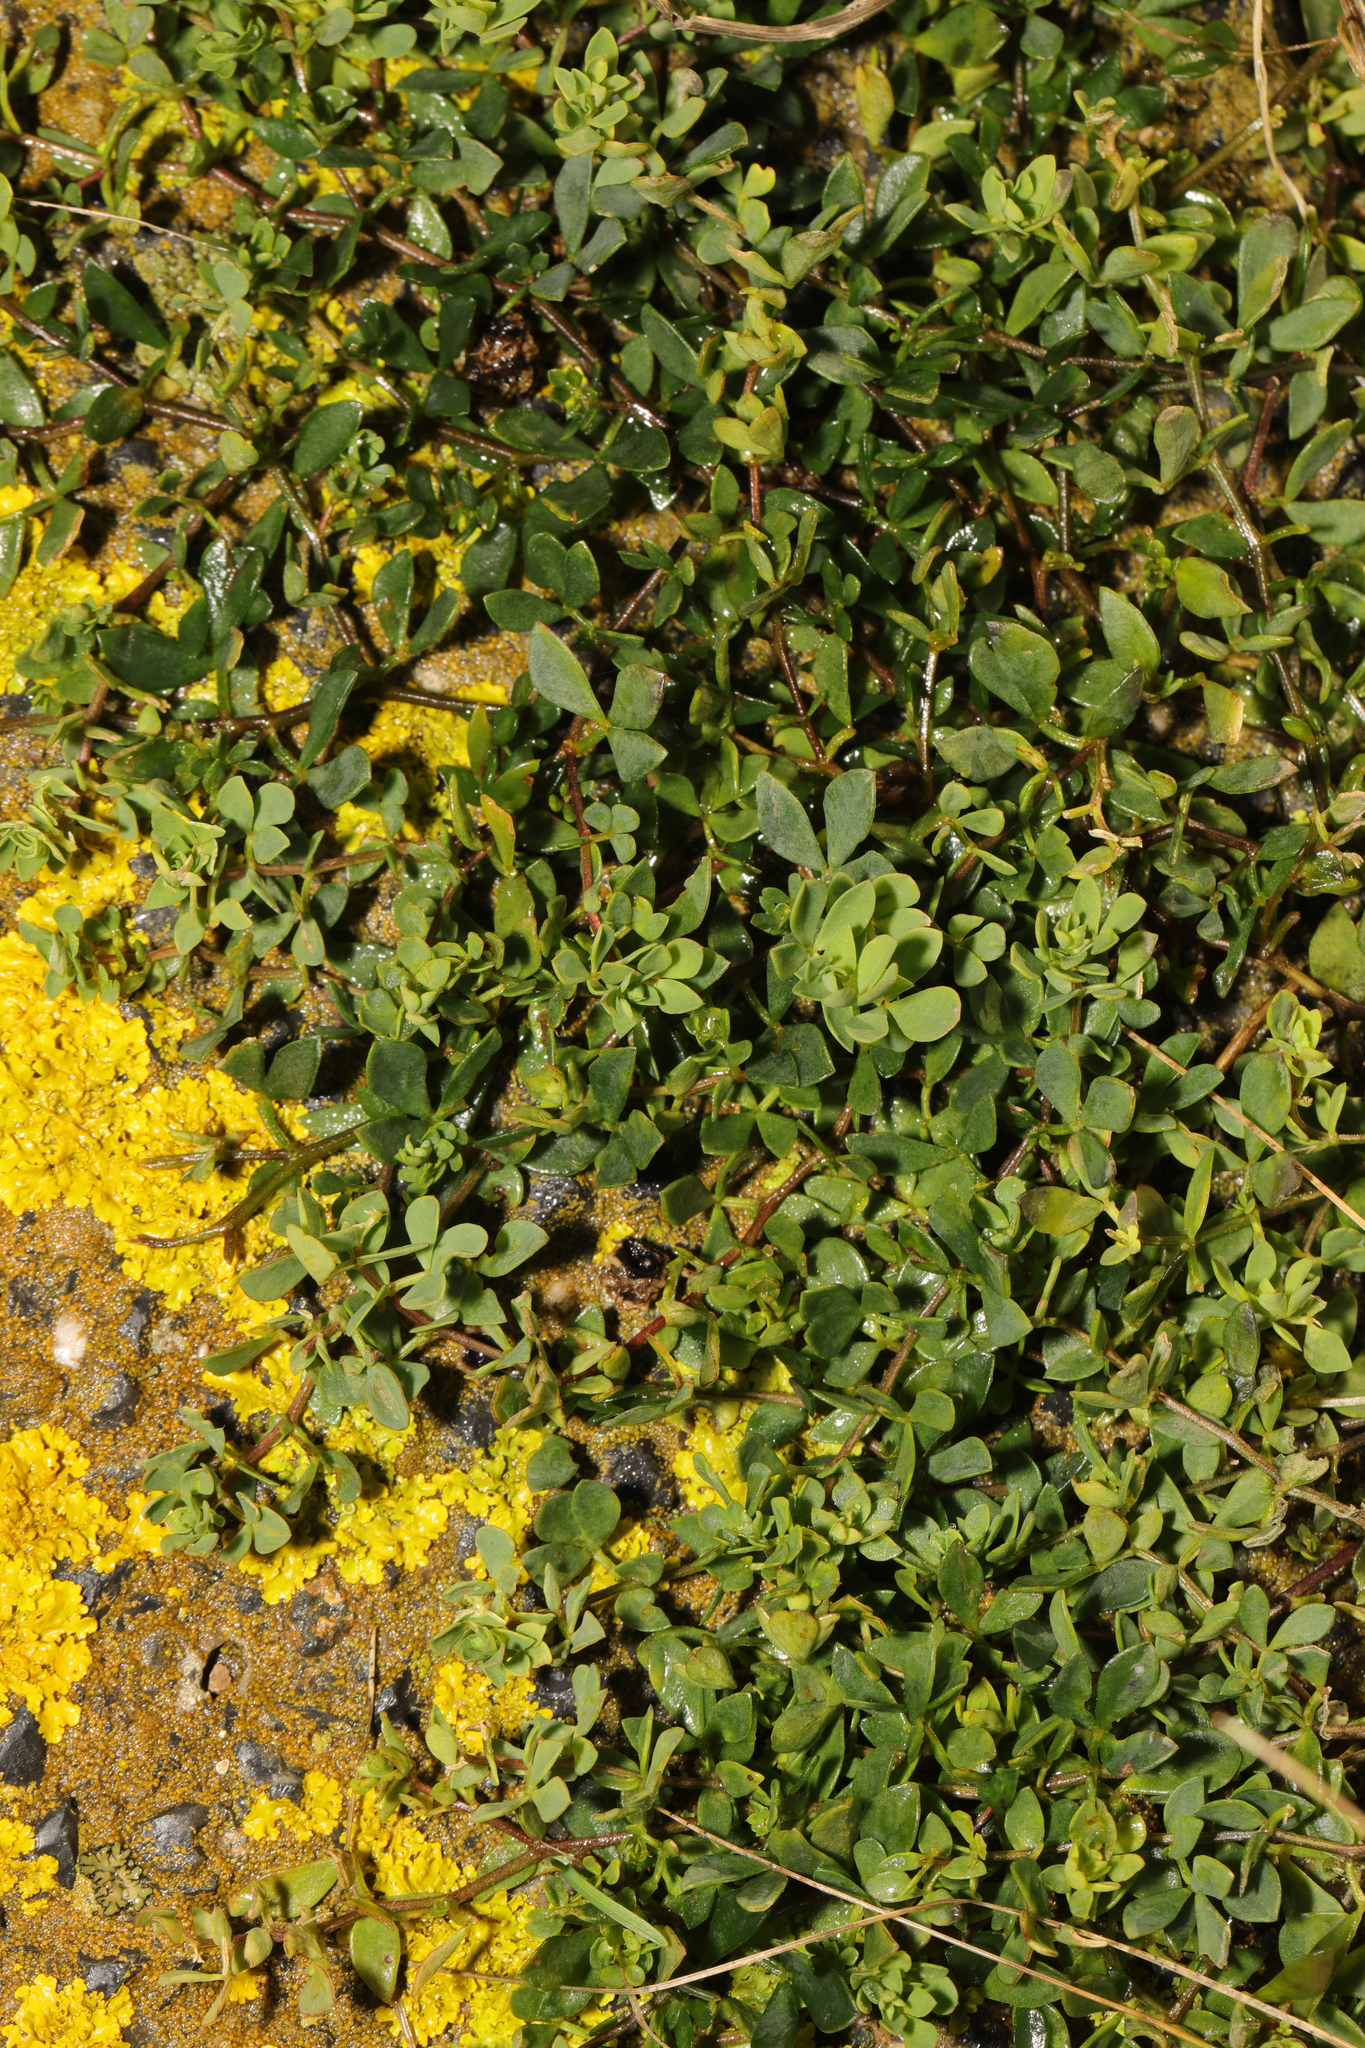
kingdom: Plantae
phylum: Tracheophyta
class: Magnoliopsida
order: Fabales
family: Fabaceae
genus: Lotus
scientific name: Lotus corniculatus
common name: Common bird's-foot-trefoil
